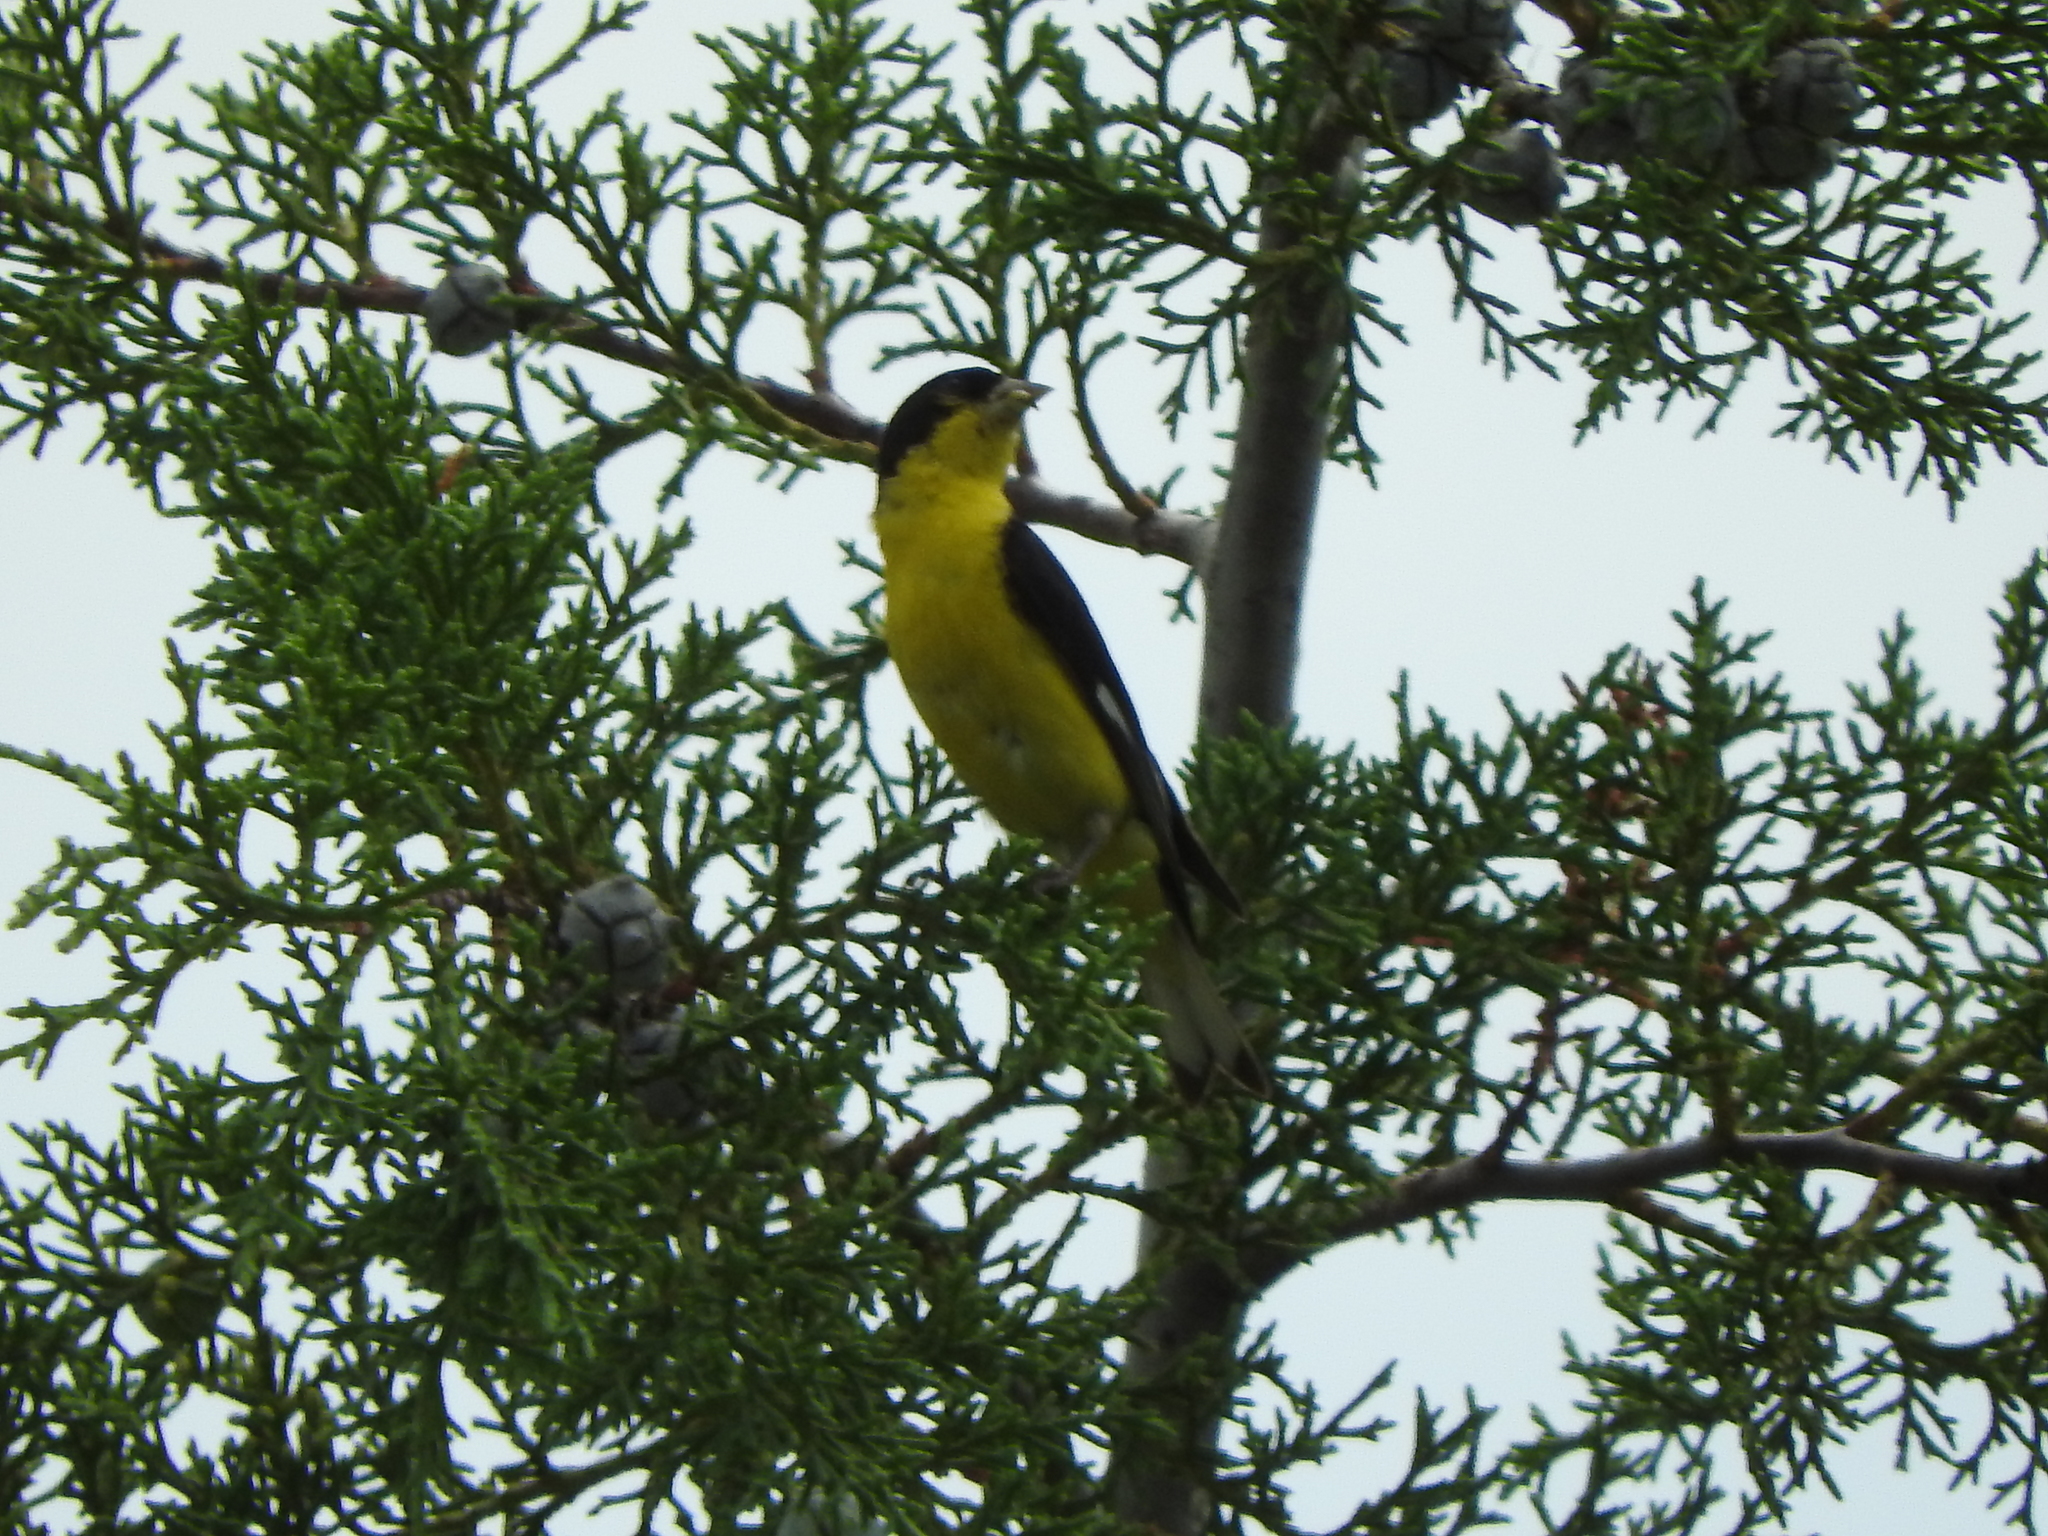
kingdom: Animalia
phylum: Chordata
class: Aves
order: Passeriformes
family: Fringillidae
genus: Spinus
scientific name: Spinus psaltria
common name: Lesser goldfinch
